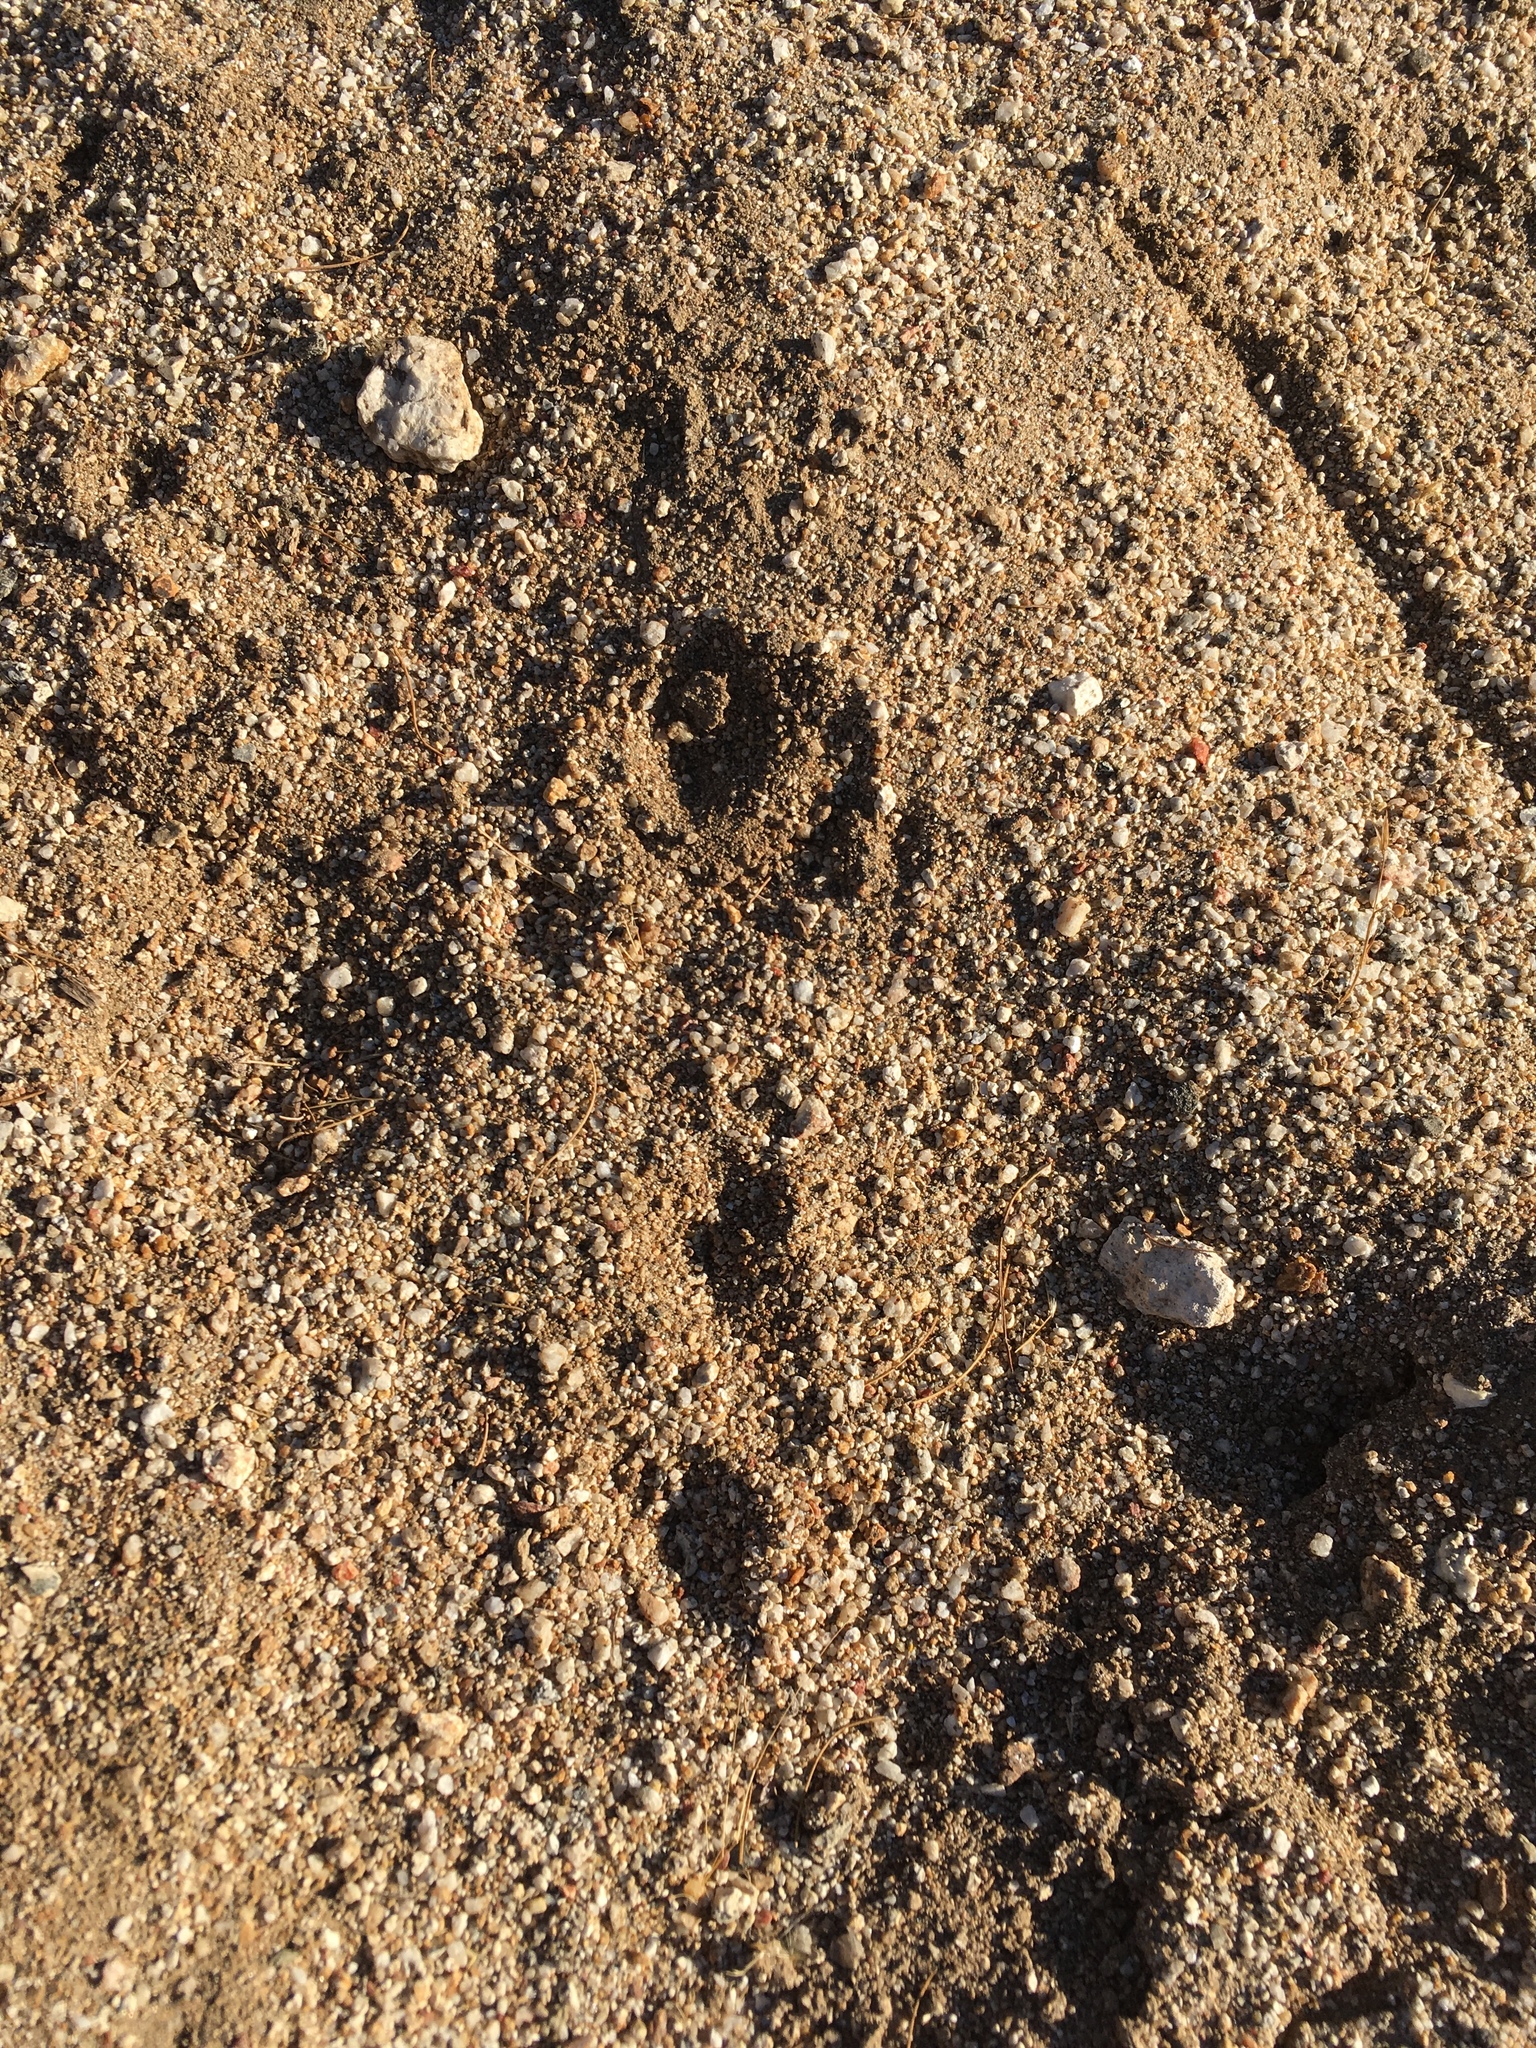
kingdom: Animalia
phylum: Chordata
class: Mammalia
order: Lagomorpha
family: Leporidae
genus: Sylvilagus
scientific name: Sylvilagus audubonii
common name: Desert cottontail
